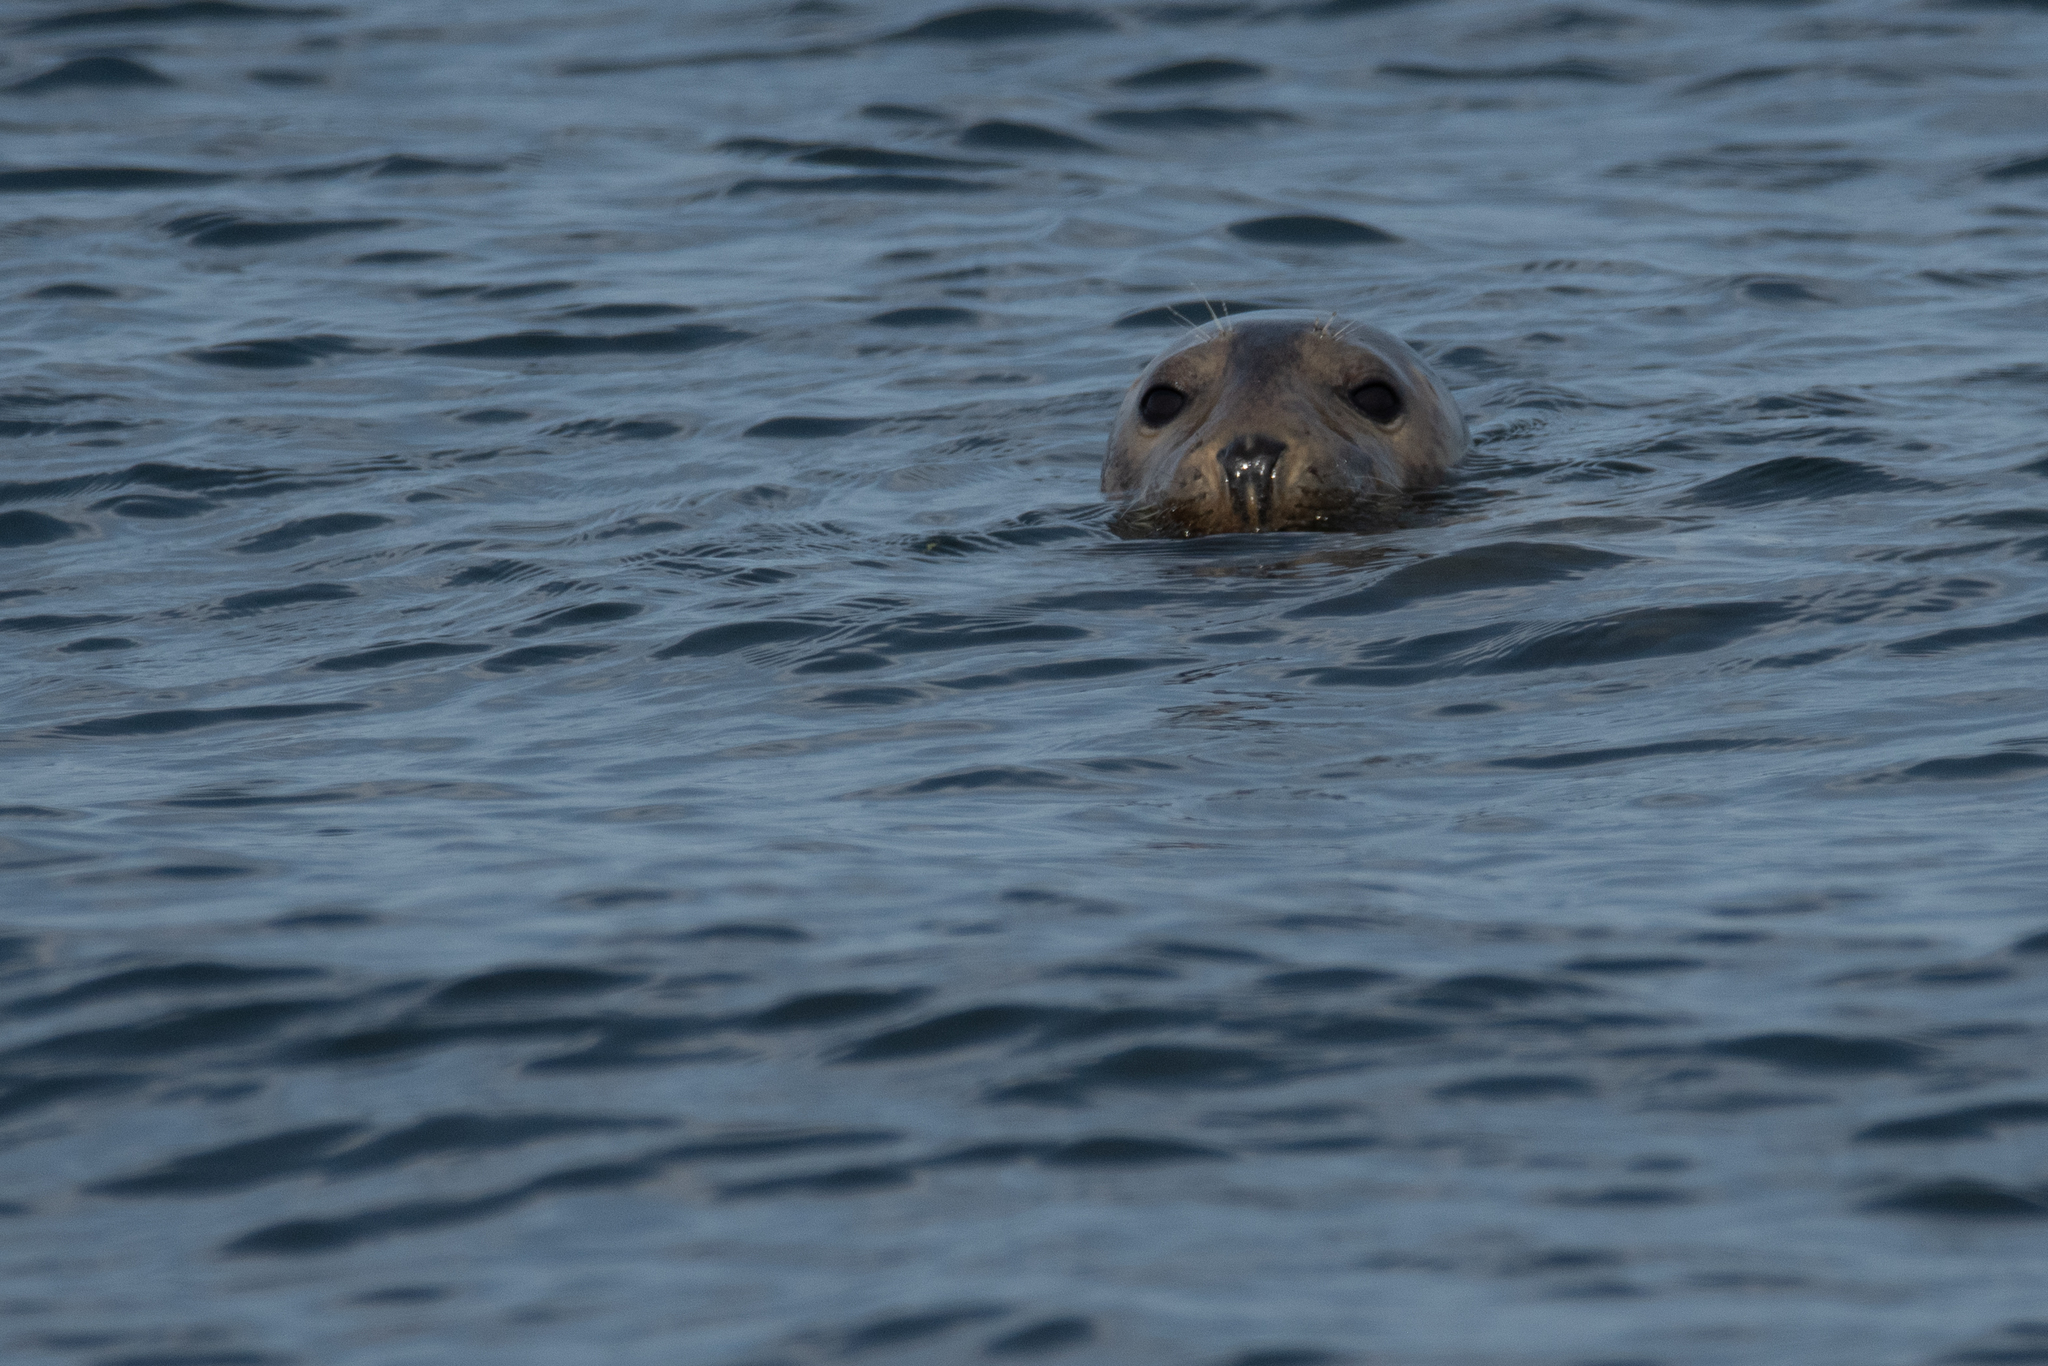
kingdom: Animalia
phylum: Chordata
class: Mammalia
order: Carnivora
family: Phocidae
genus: Halichoerus
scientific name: Halichoerus grypus
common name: Grey seal
